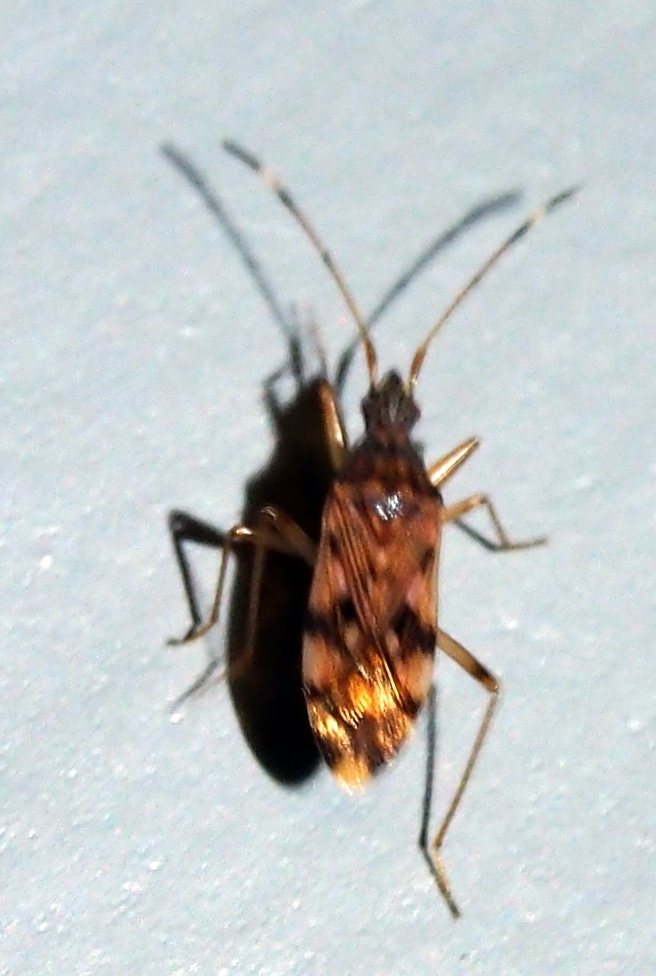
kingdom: Animalia
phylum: Arthropoda
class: Insecta
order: Hemiptera
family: Rhyparochromidae
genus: Ozophora
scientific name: Ozophora picturata
